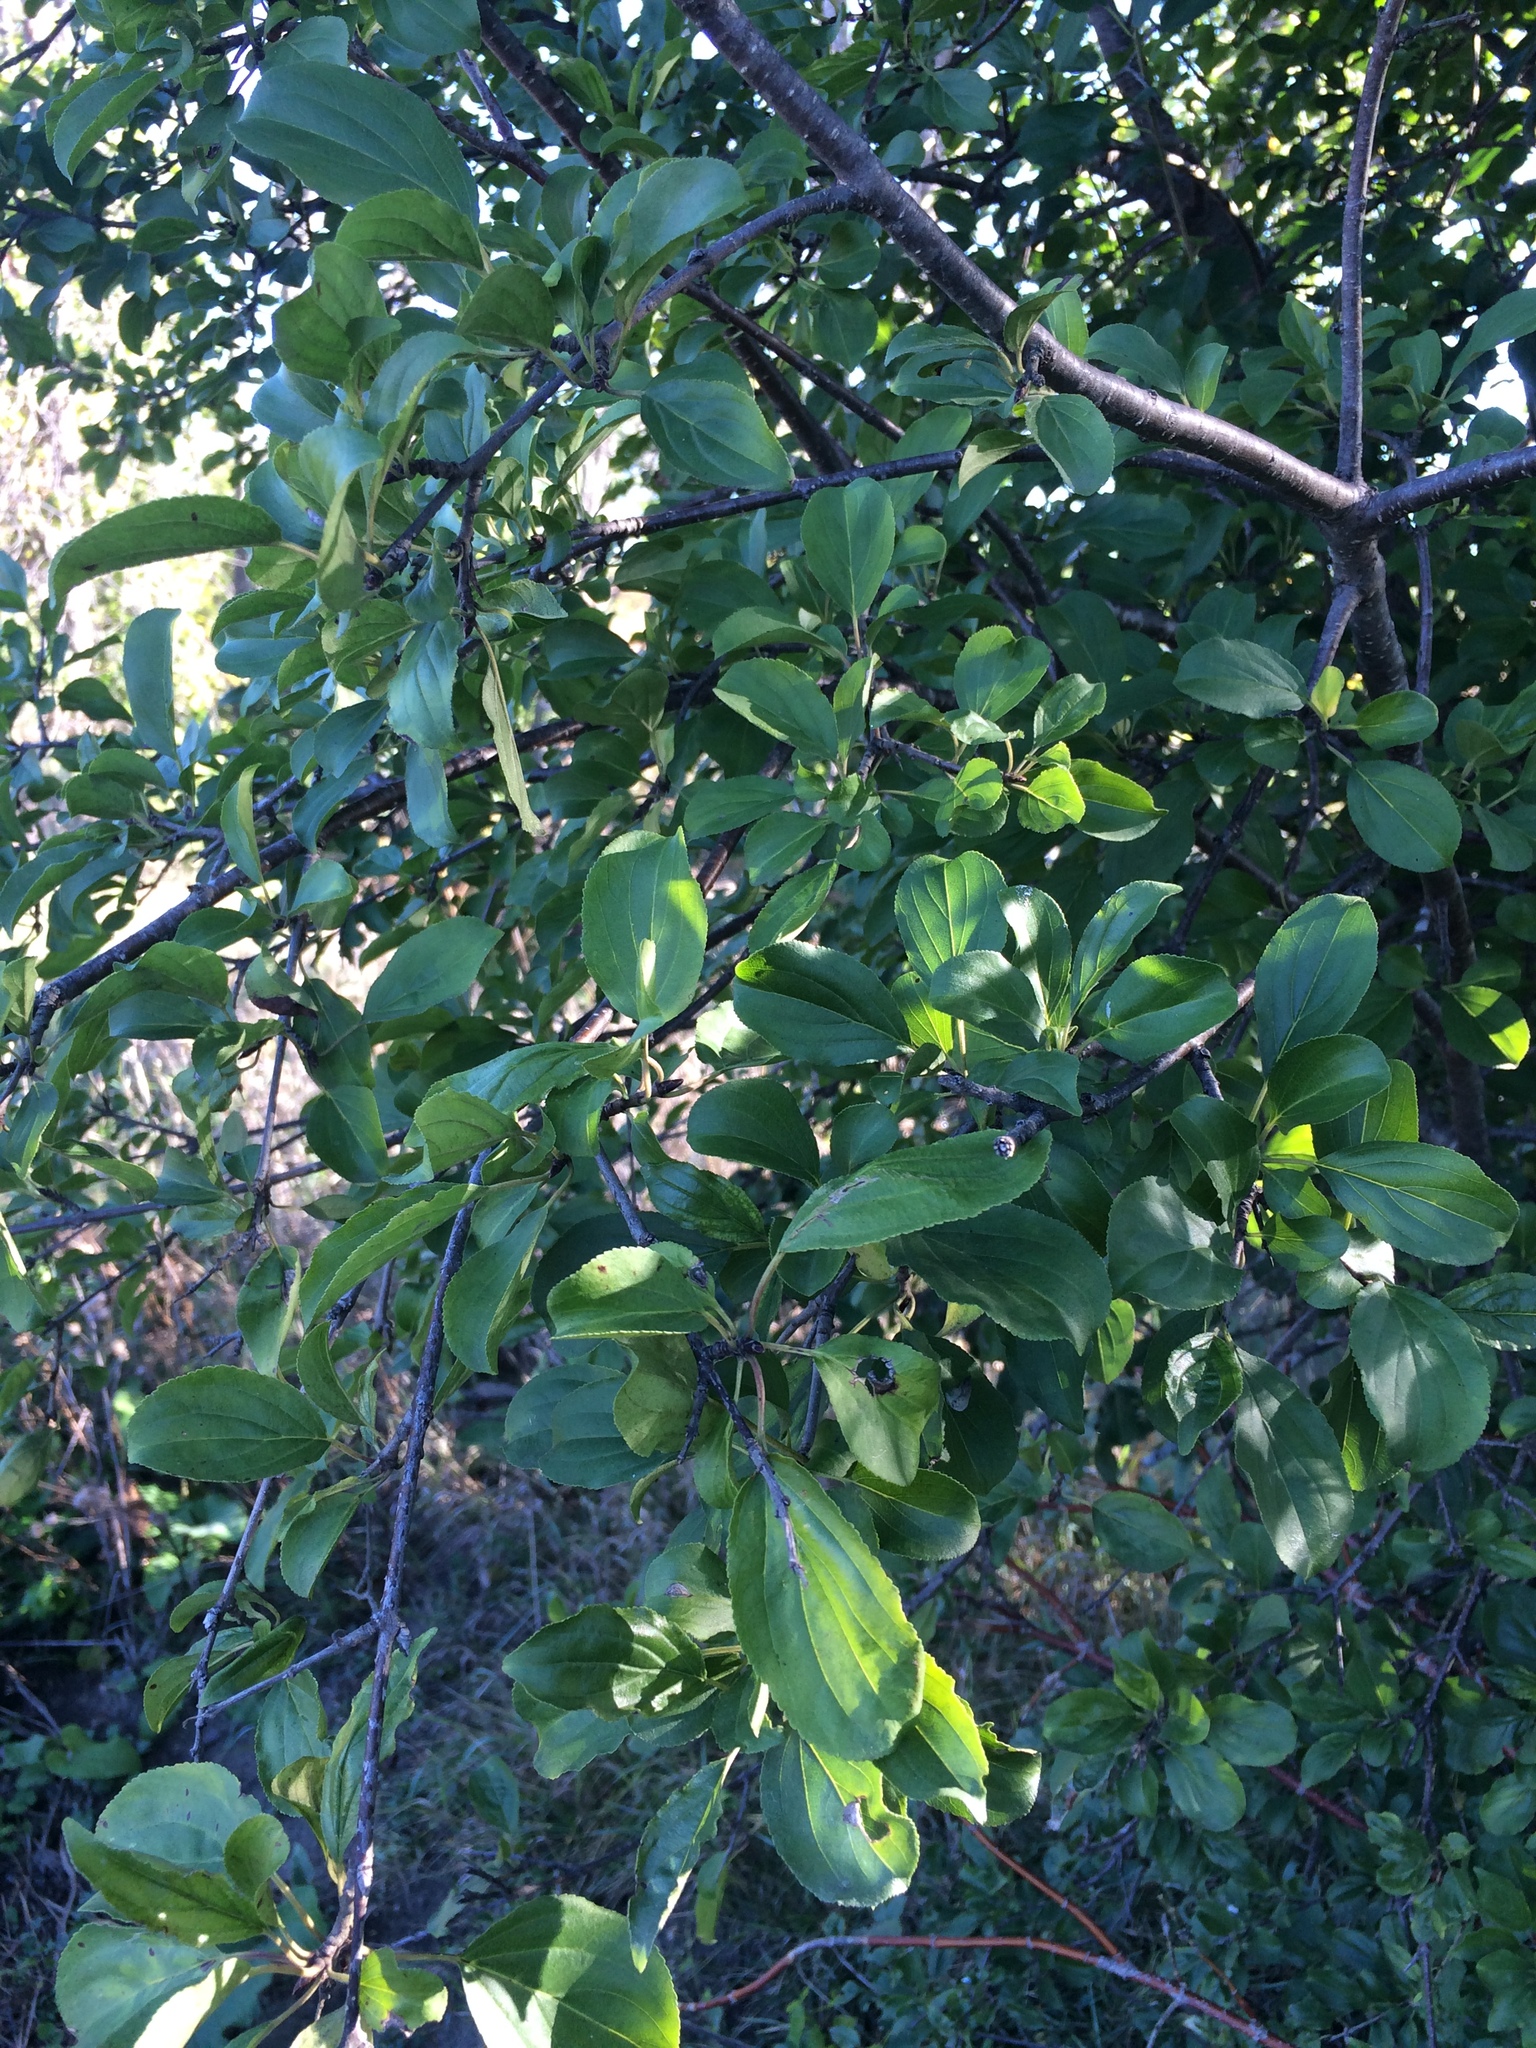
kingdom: Plantae
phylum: Tracheophyta
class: Magnoliopsida
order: Rosales
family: Rhamnaceae
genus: Rhamnus
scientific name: Rhamnus cathartica
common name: Common buckthorn
